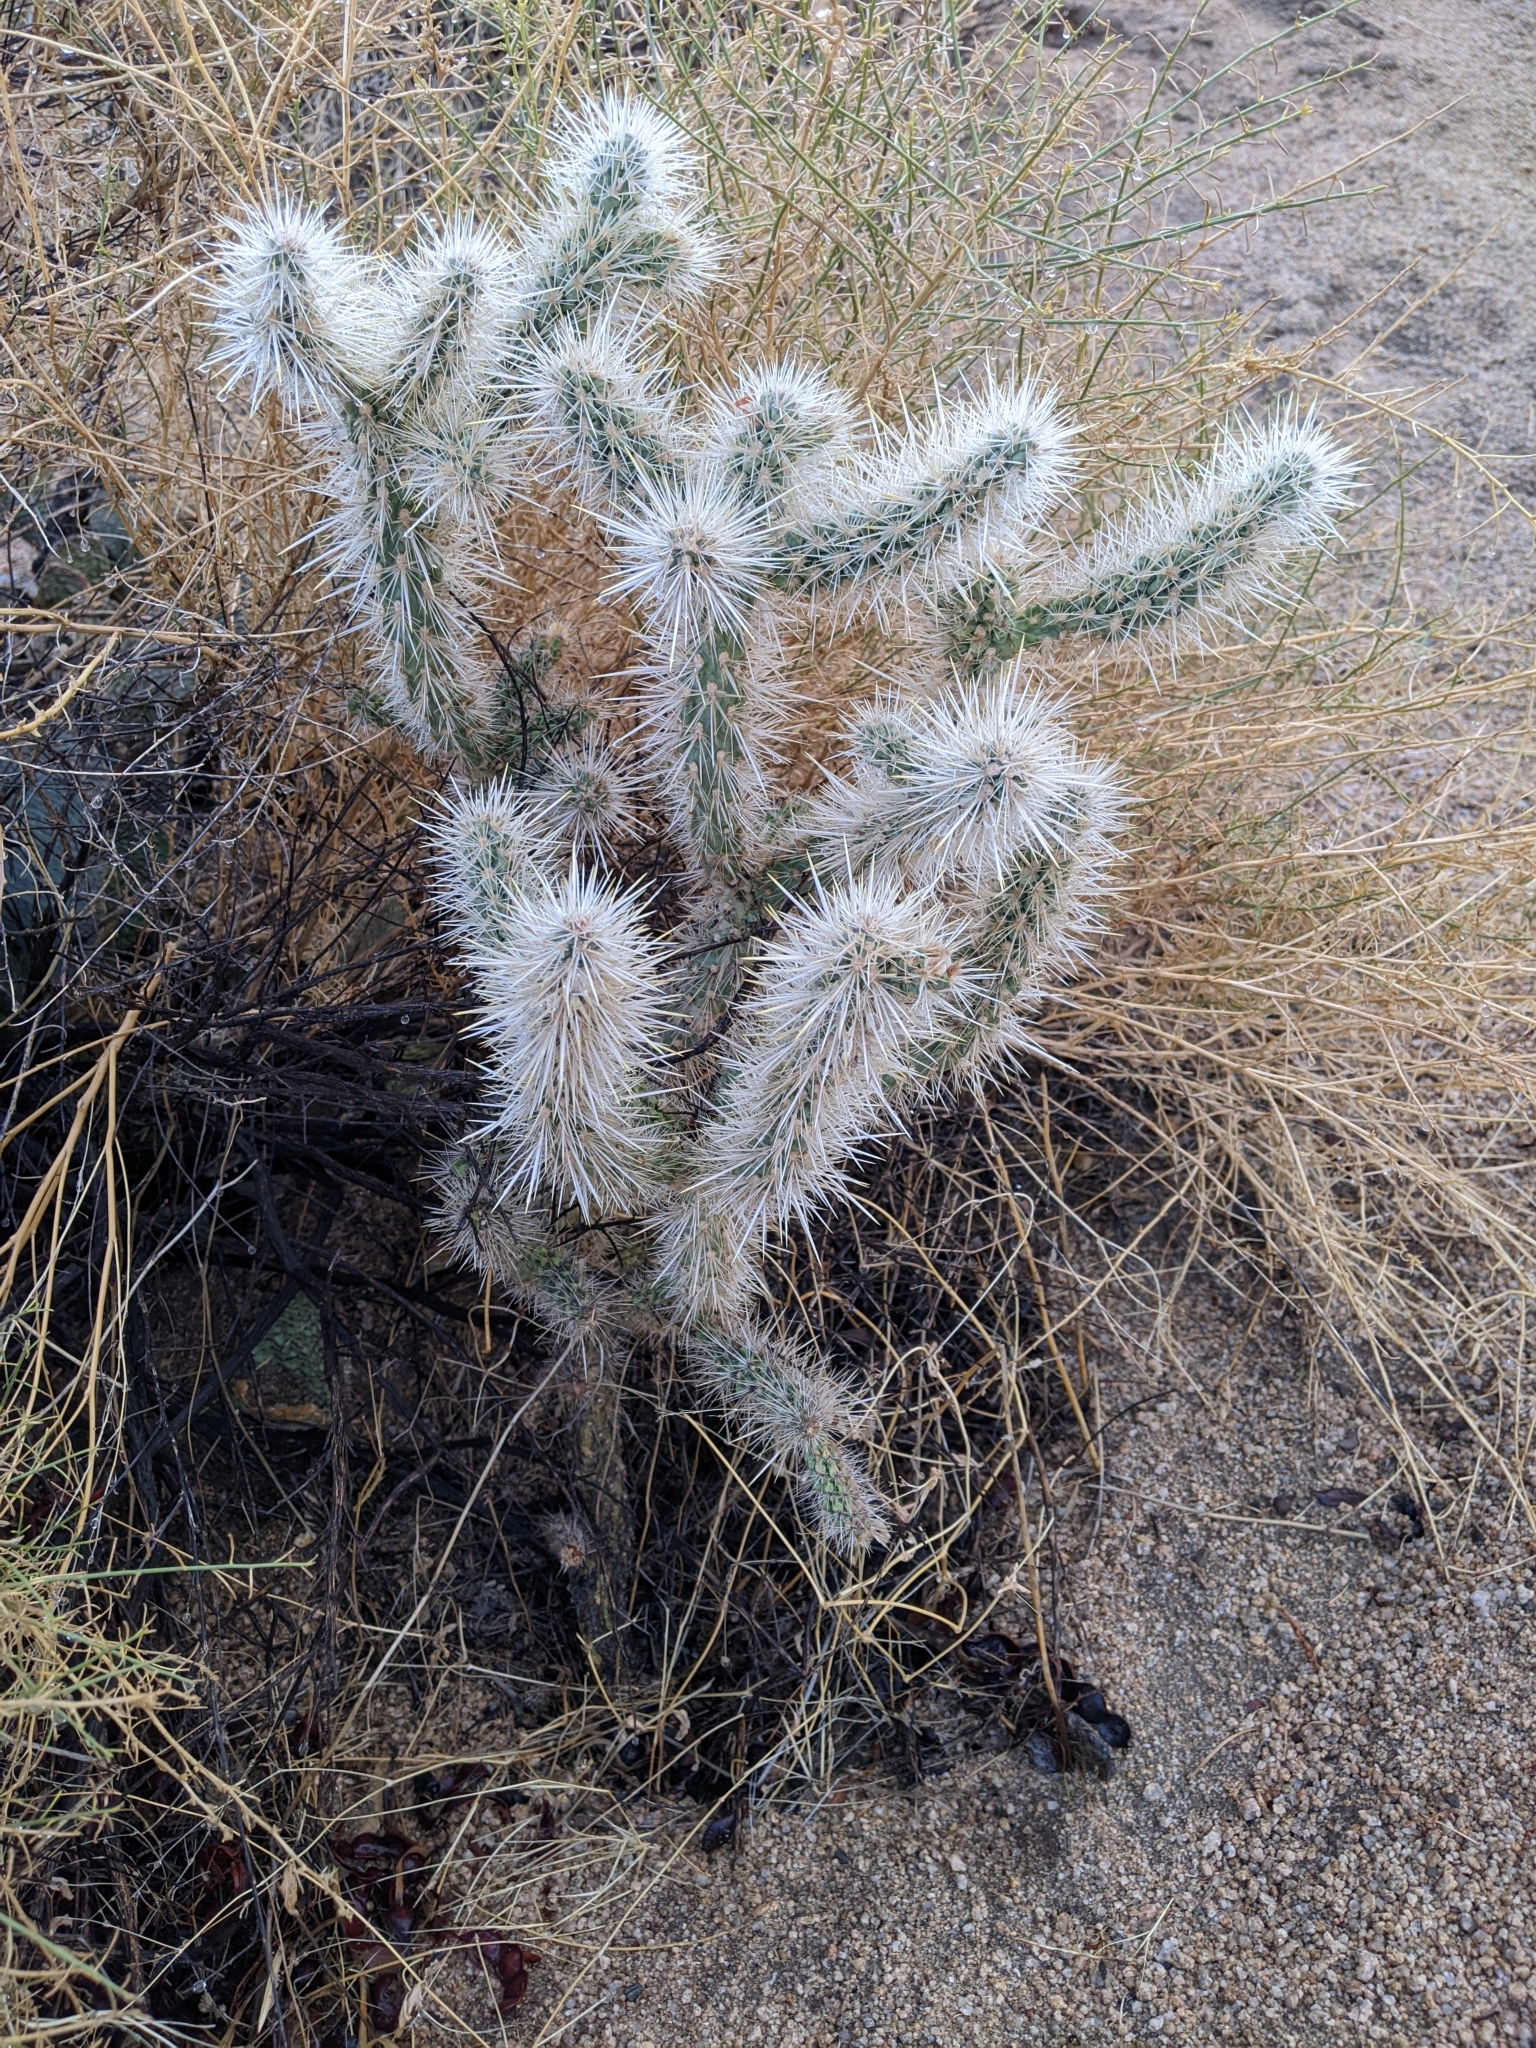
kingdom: Plantae
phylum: Tracheophyta
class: Magnoliopsida
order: Caryophyllales
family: Cactaceae
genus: Cylindropuntia
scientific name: Cylindropuntia echinocarpa
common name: Ground cholla
